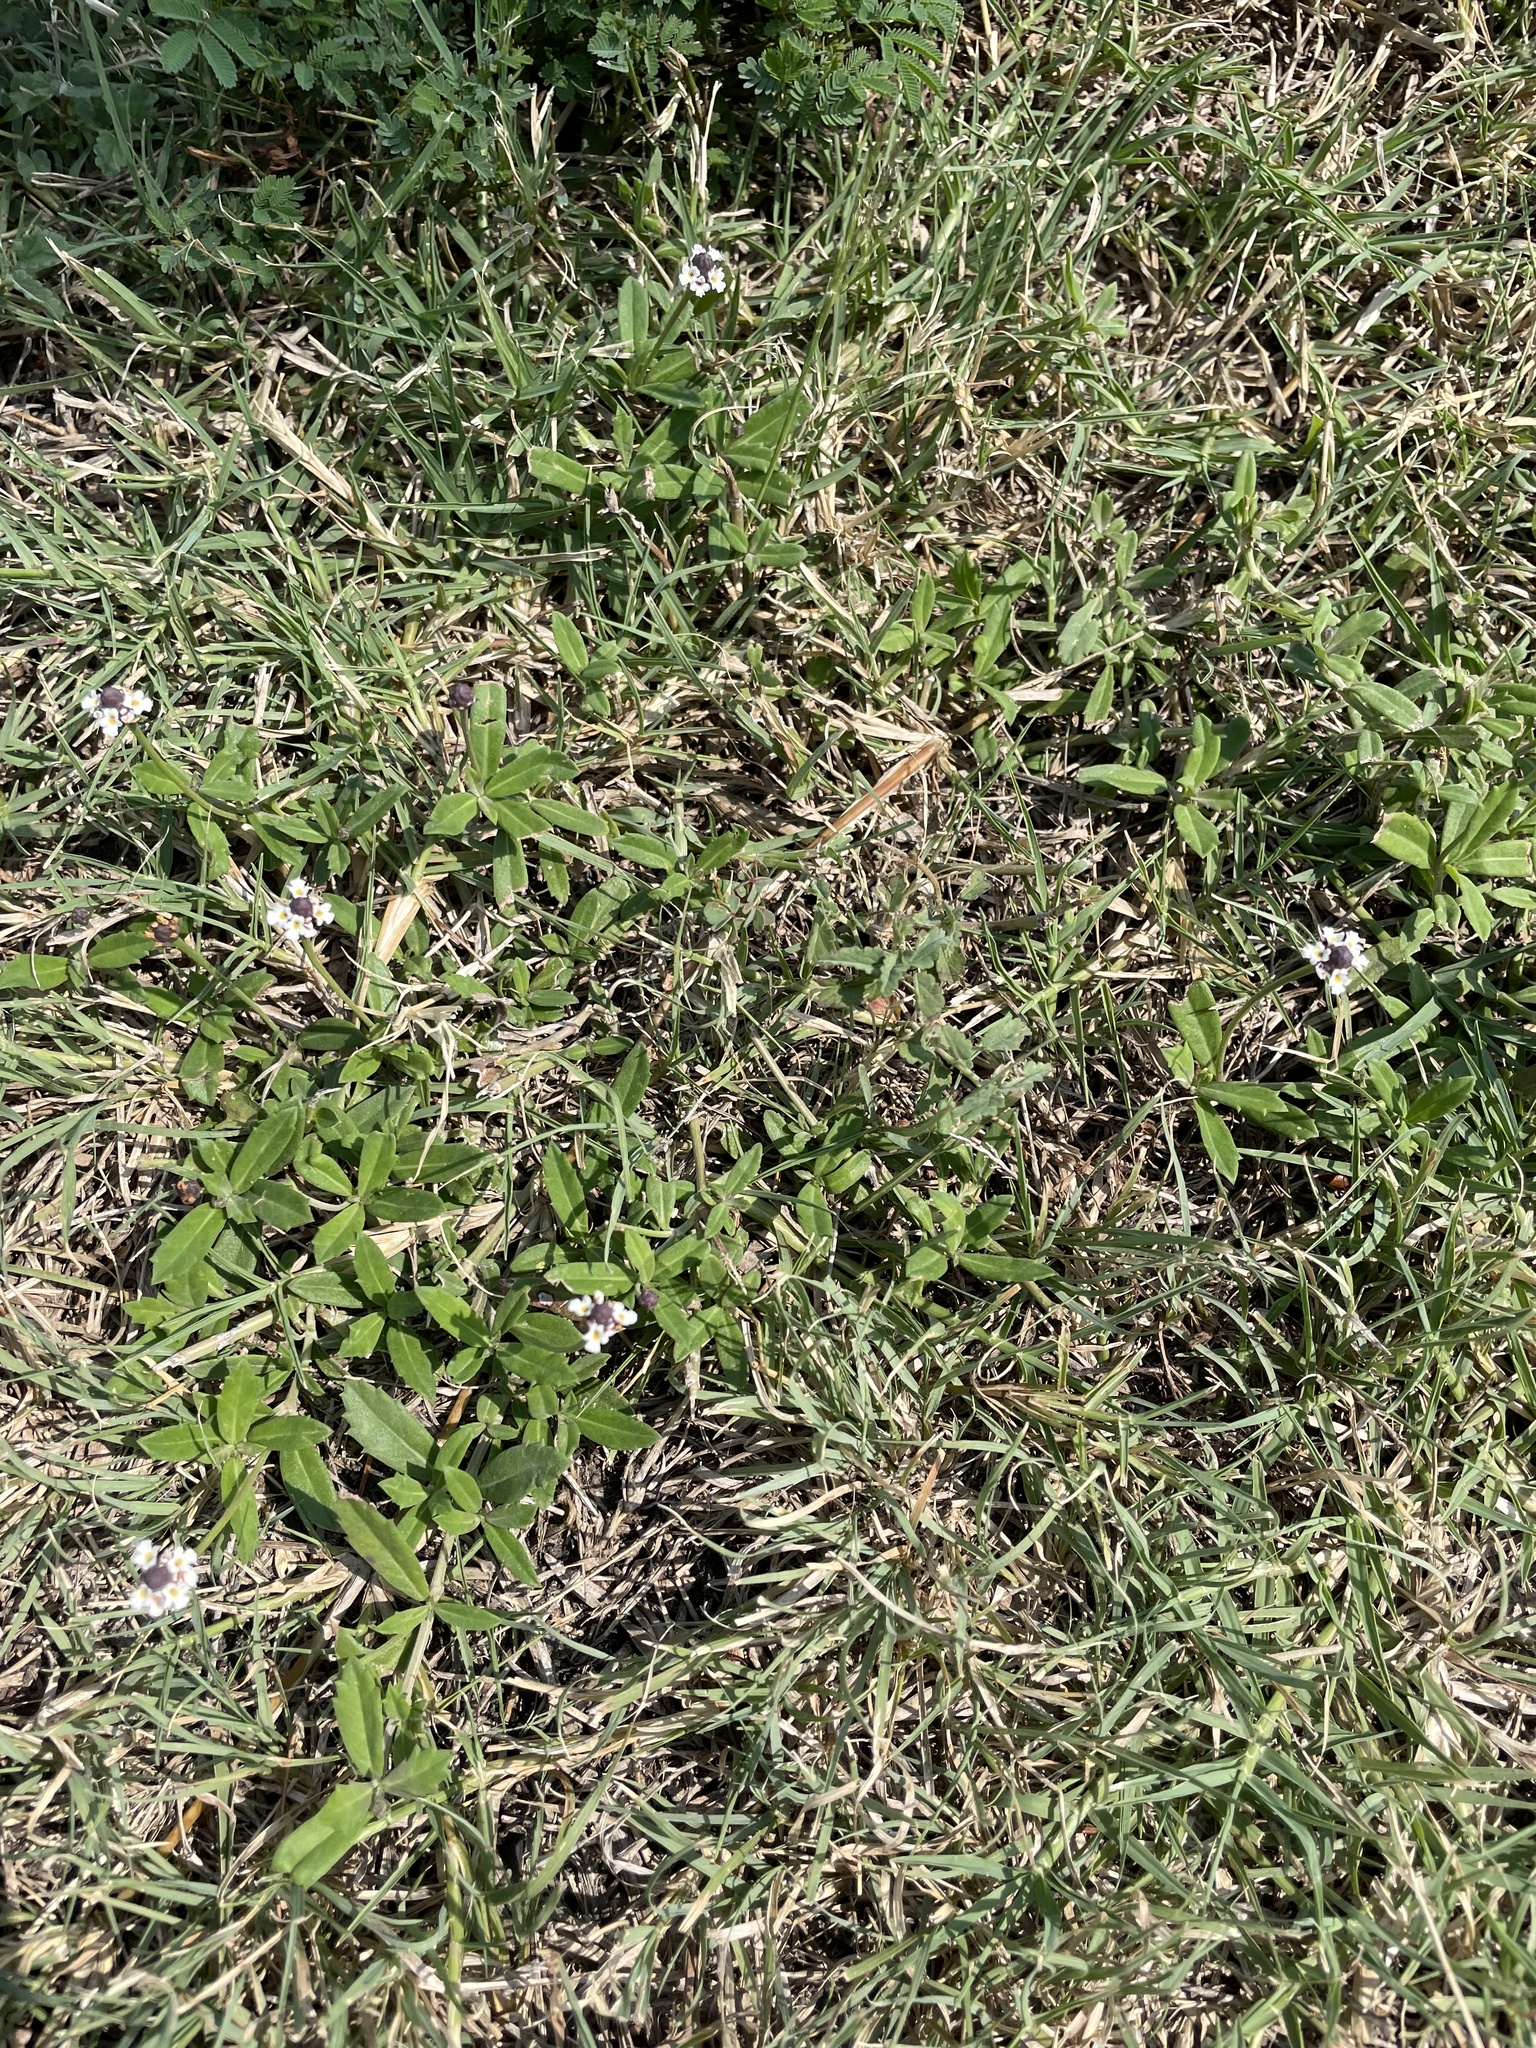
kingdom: Plantae
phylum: Tracheophyta
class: Magnoliopsida
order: Lamiales
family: Verbenaceae
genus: Phyla
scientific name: Phyla nodiflora
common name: Frogfruit
